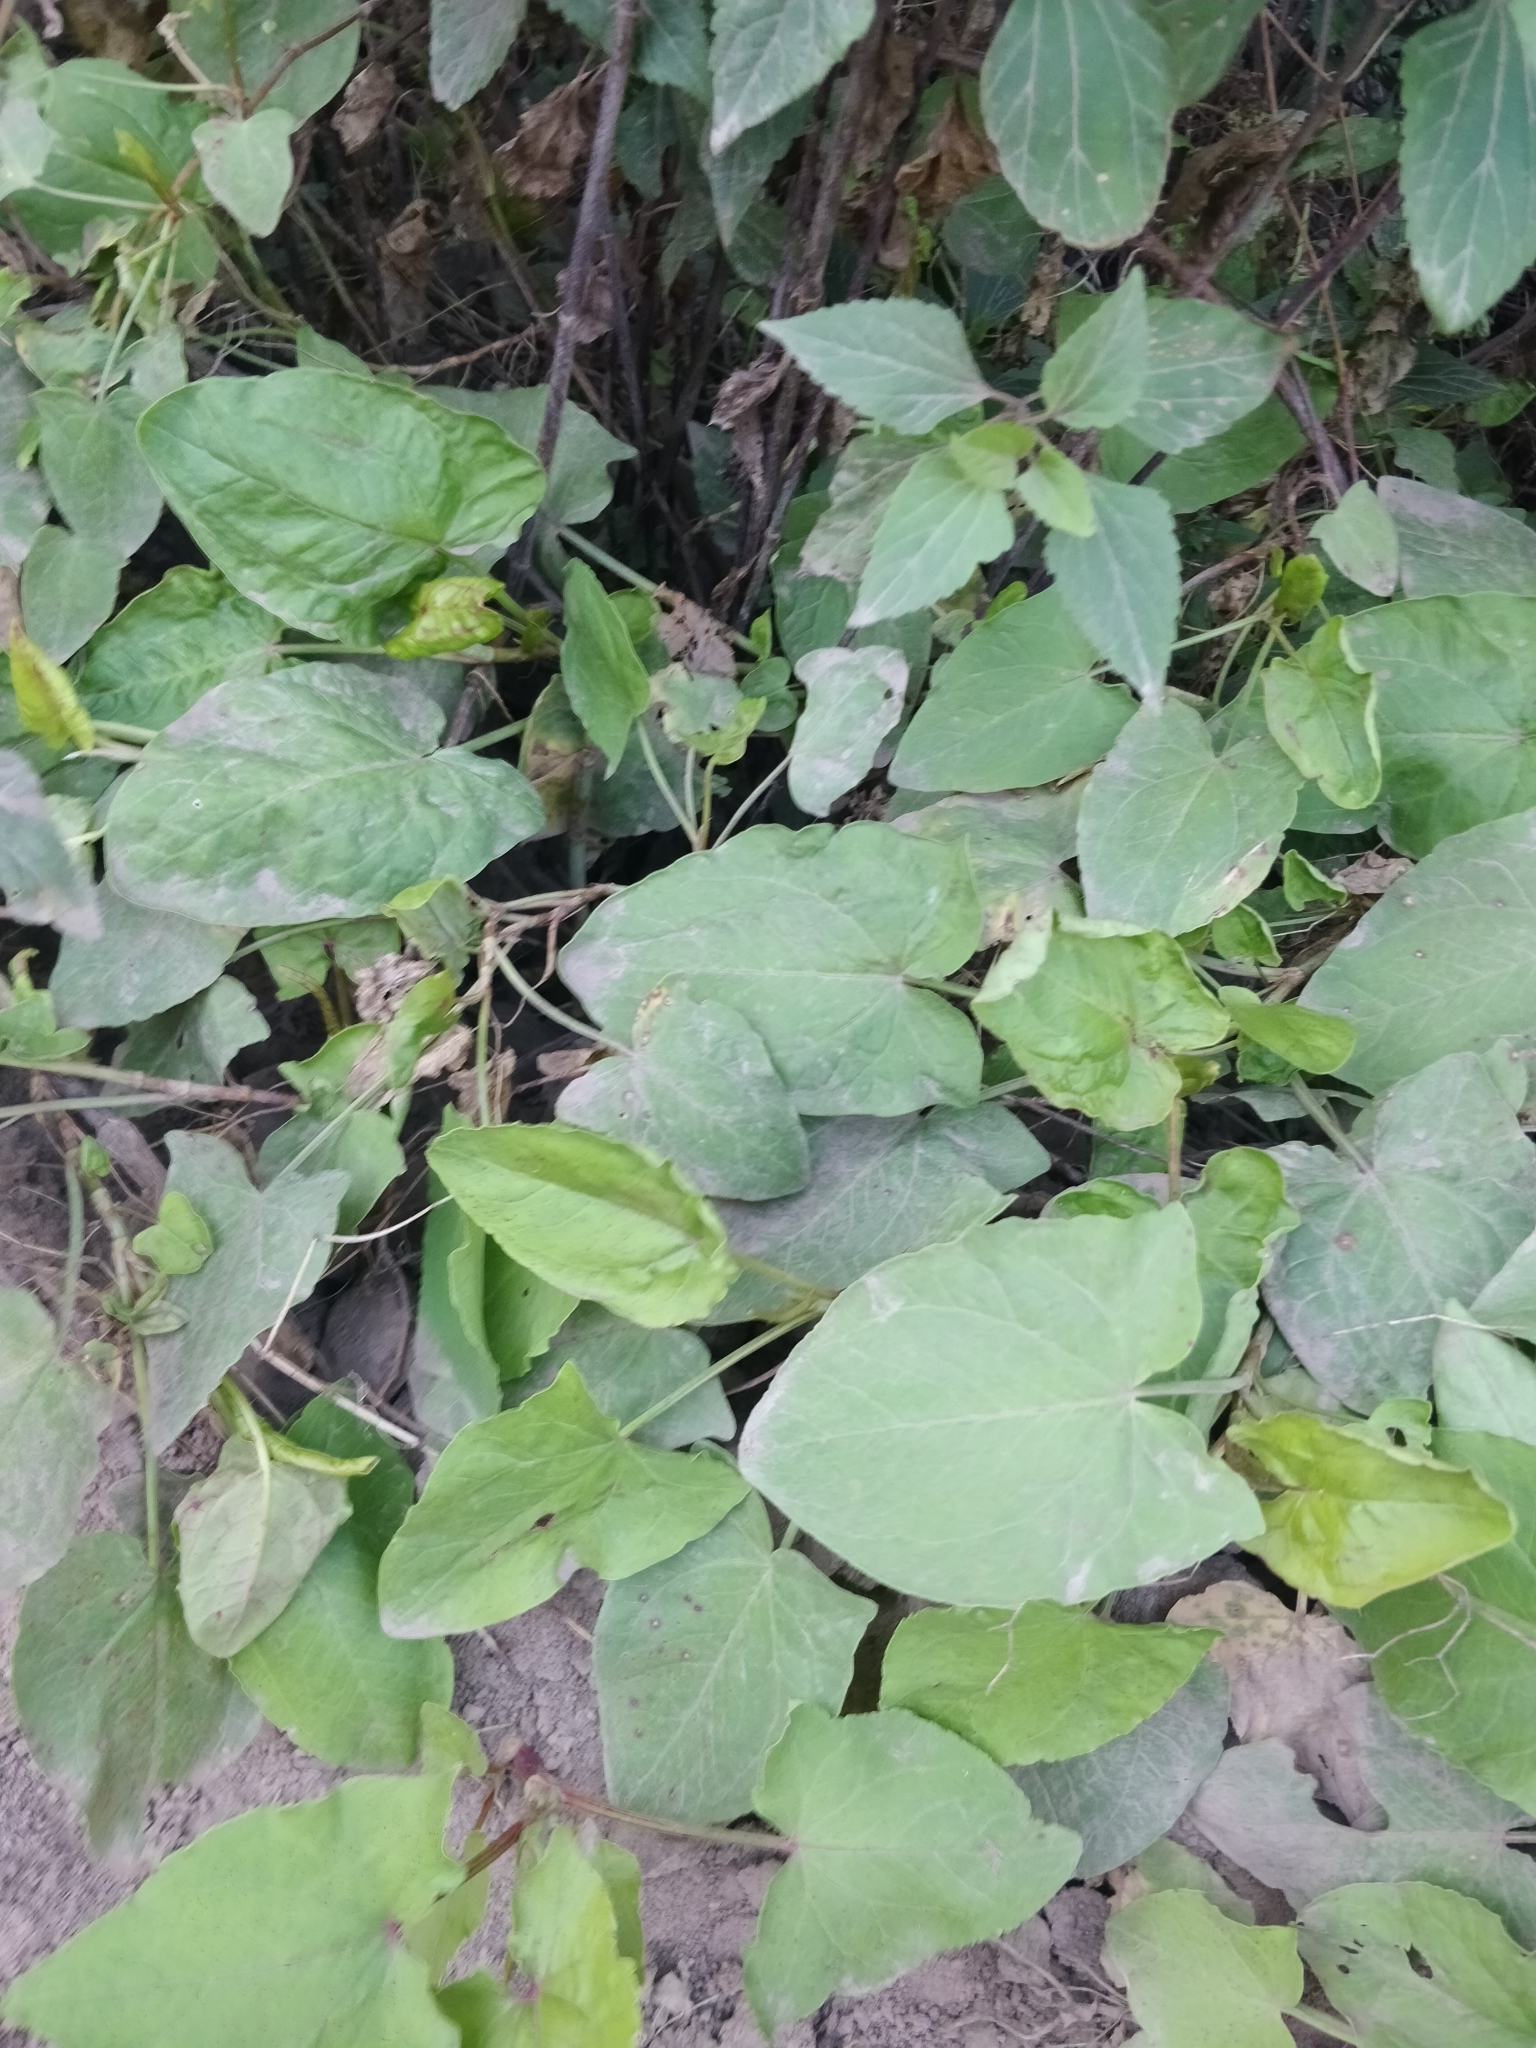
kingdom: Plantae
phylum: Tracheophyta
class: Magnoliopsida
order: Caryophyllales
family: Polygonaceae
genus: Rumex
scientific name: Rumex maderensis
